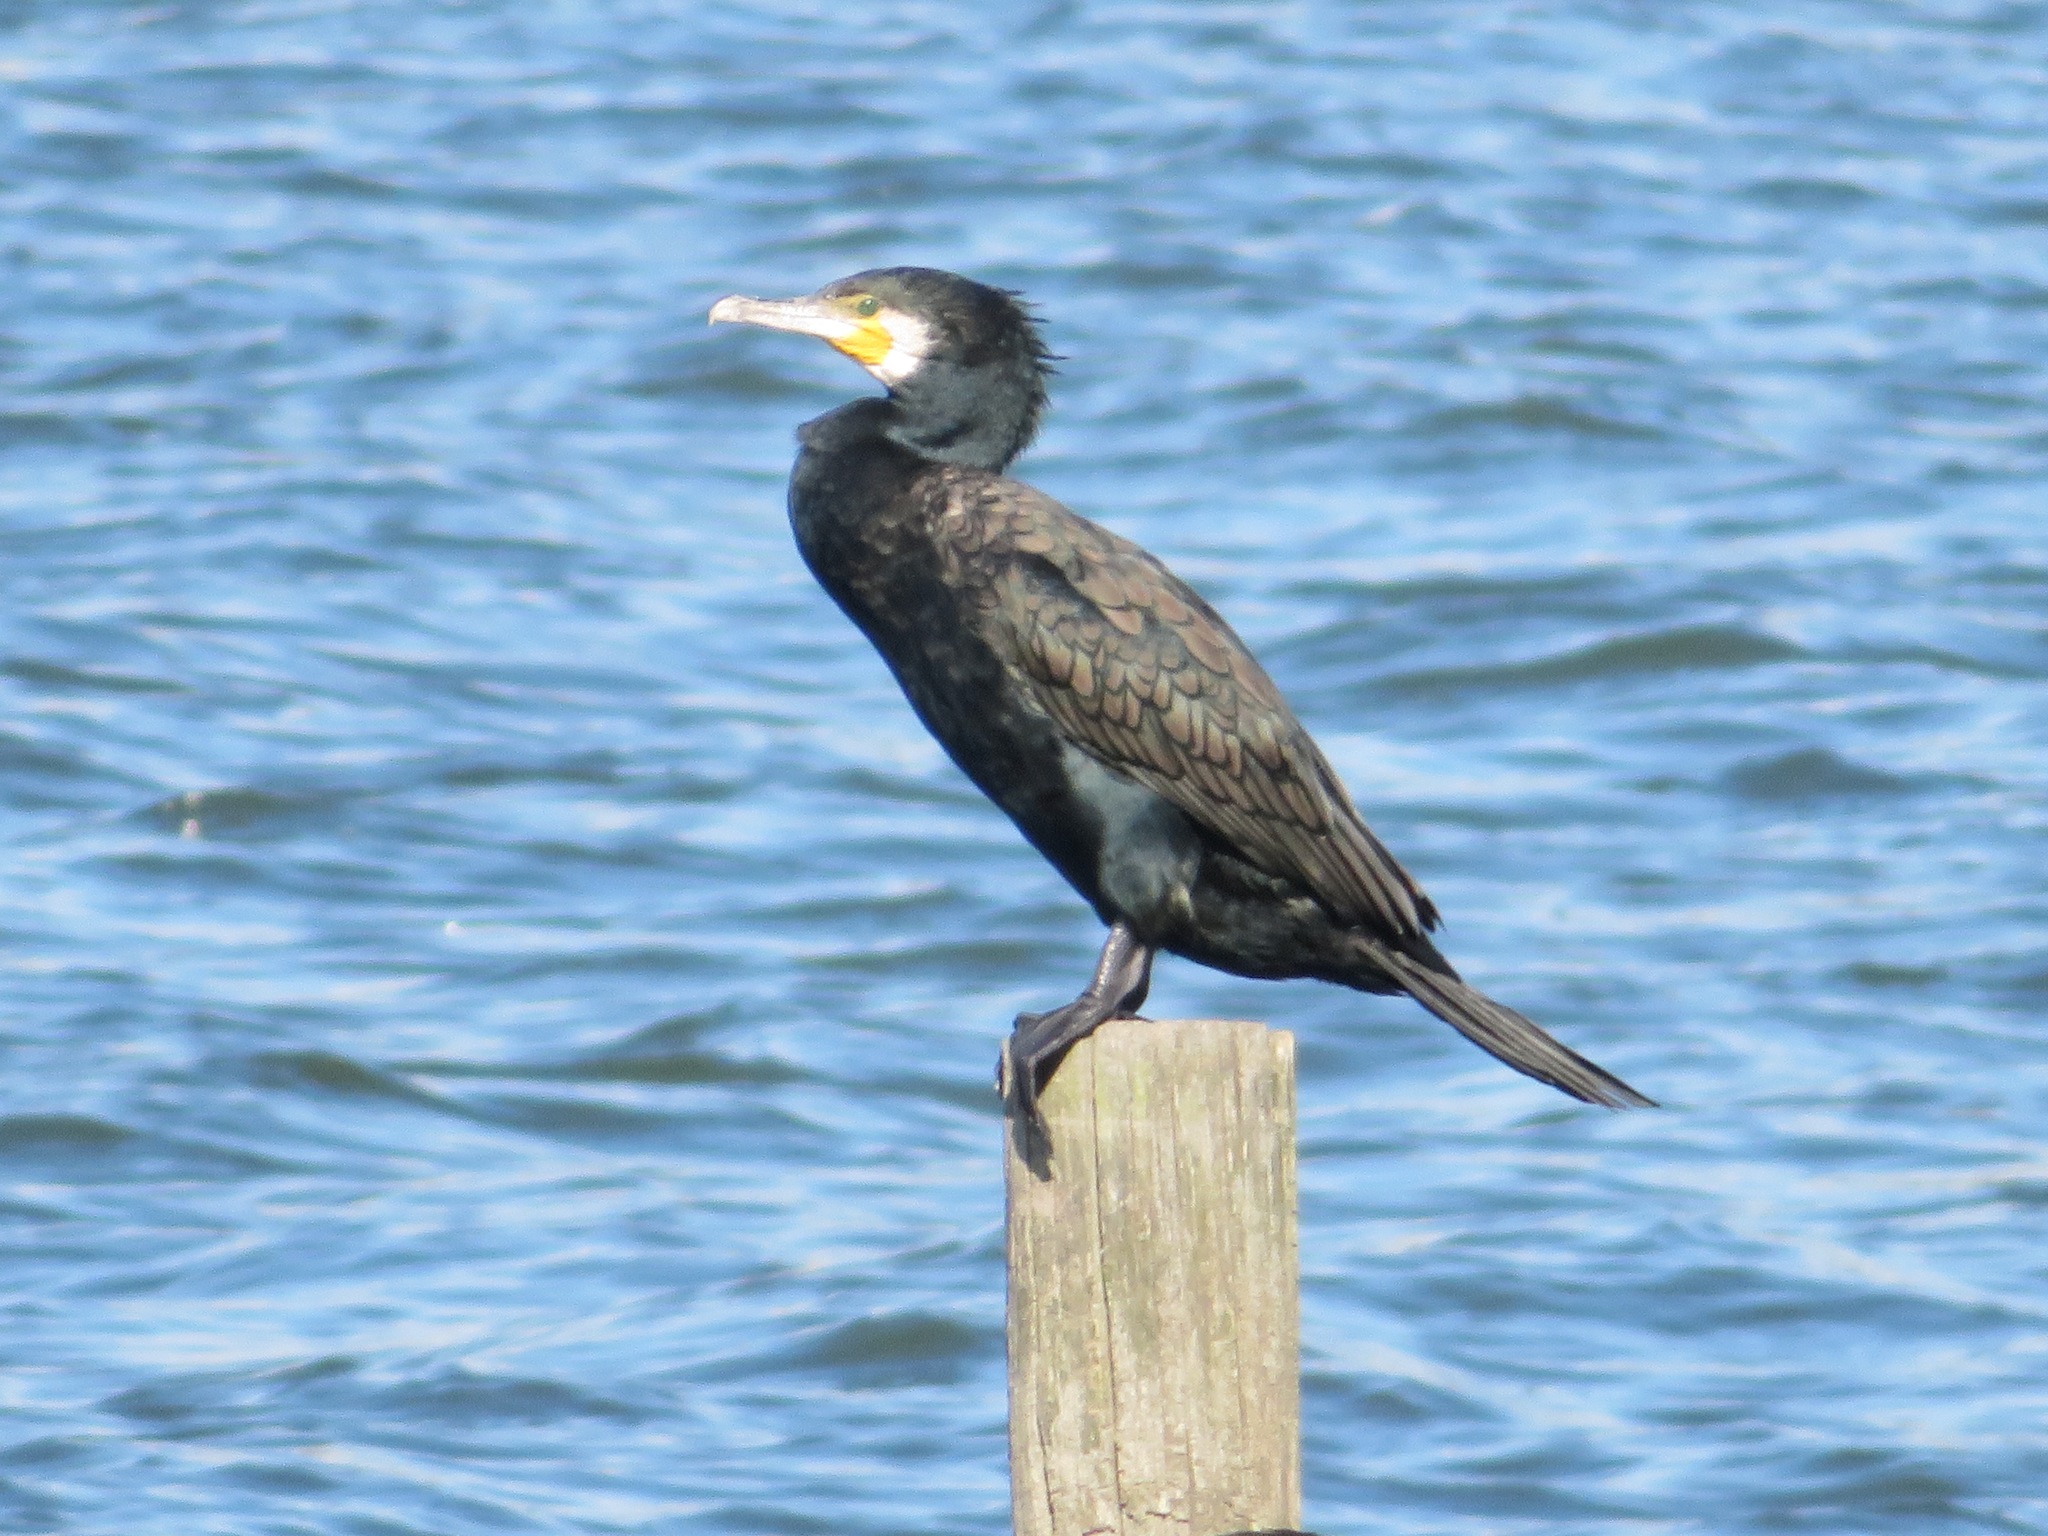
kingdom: Animalia
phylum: Chordata
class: Aves
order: Suliformes
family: Phalacrocoracidae
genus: Phalacrocorax
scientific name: Phalacrocorax carbo
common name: Great cormorant
